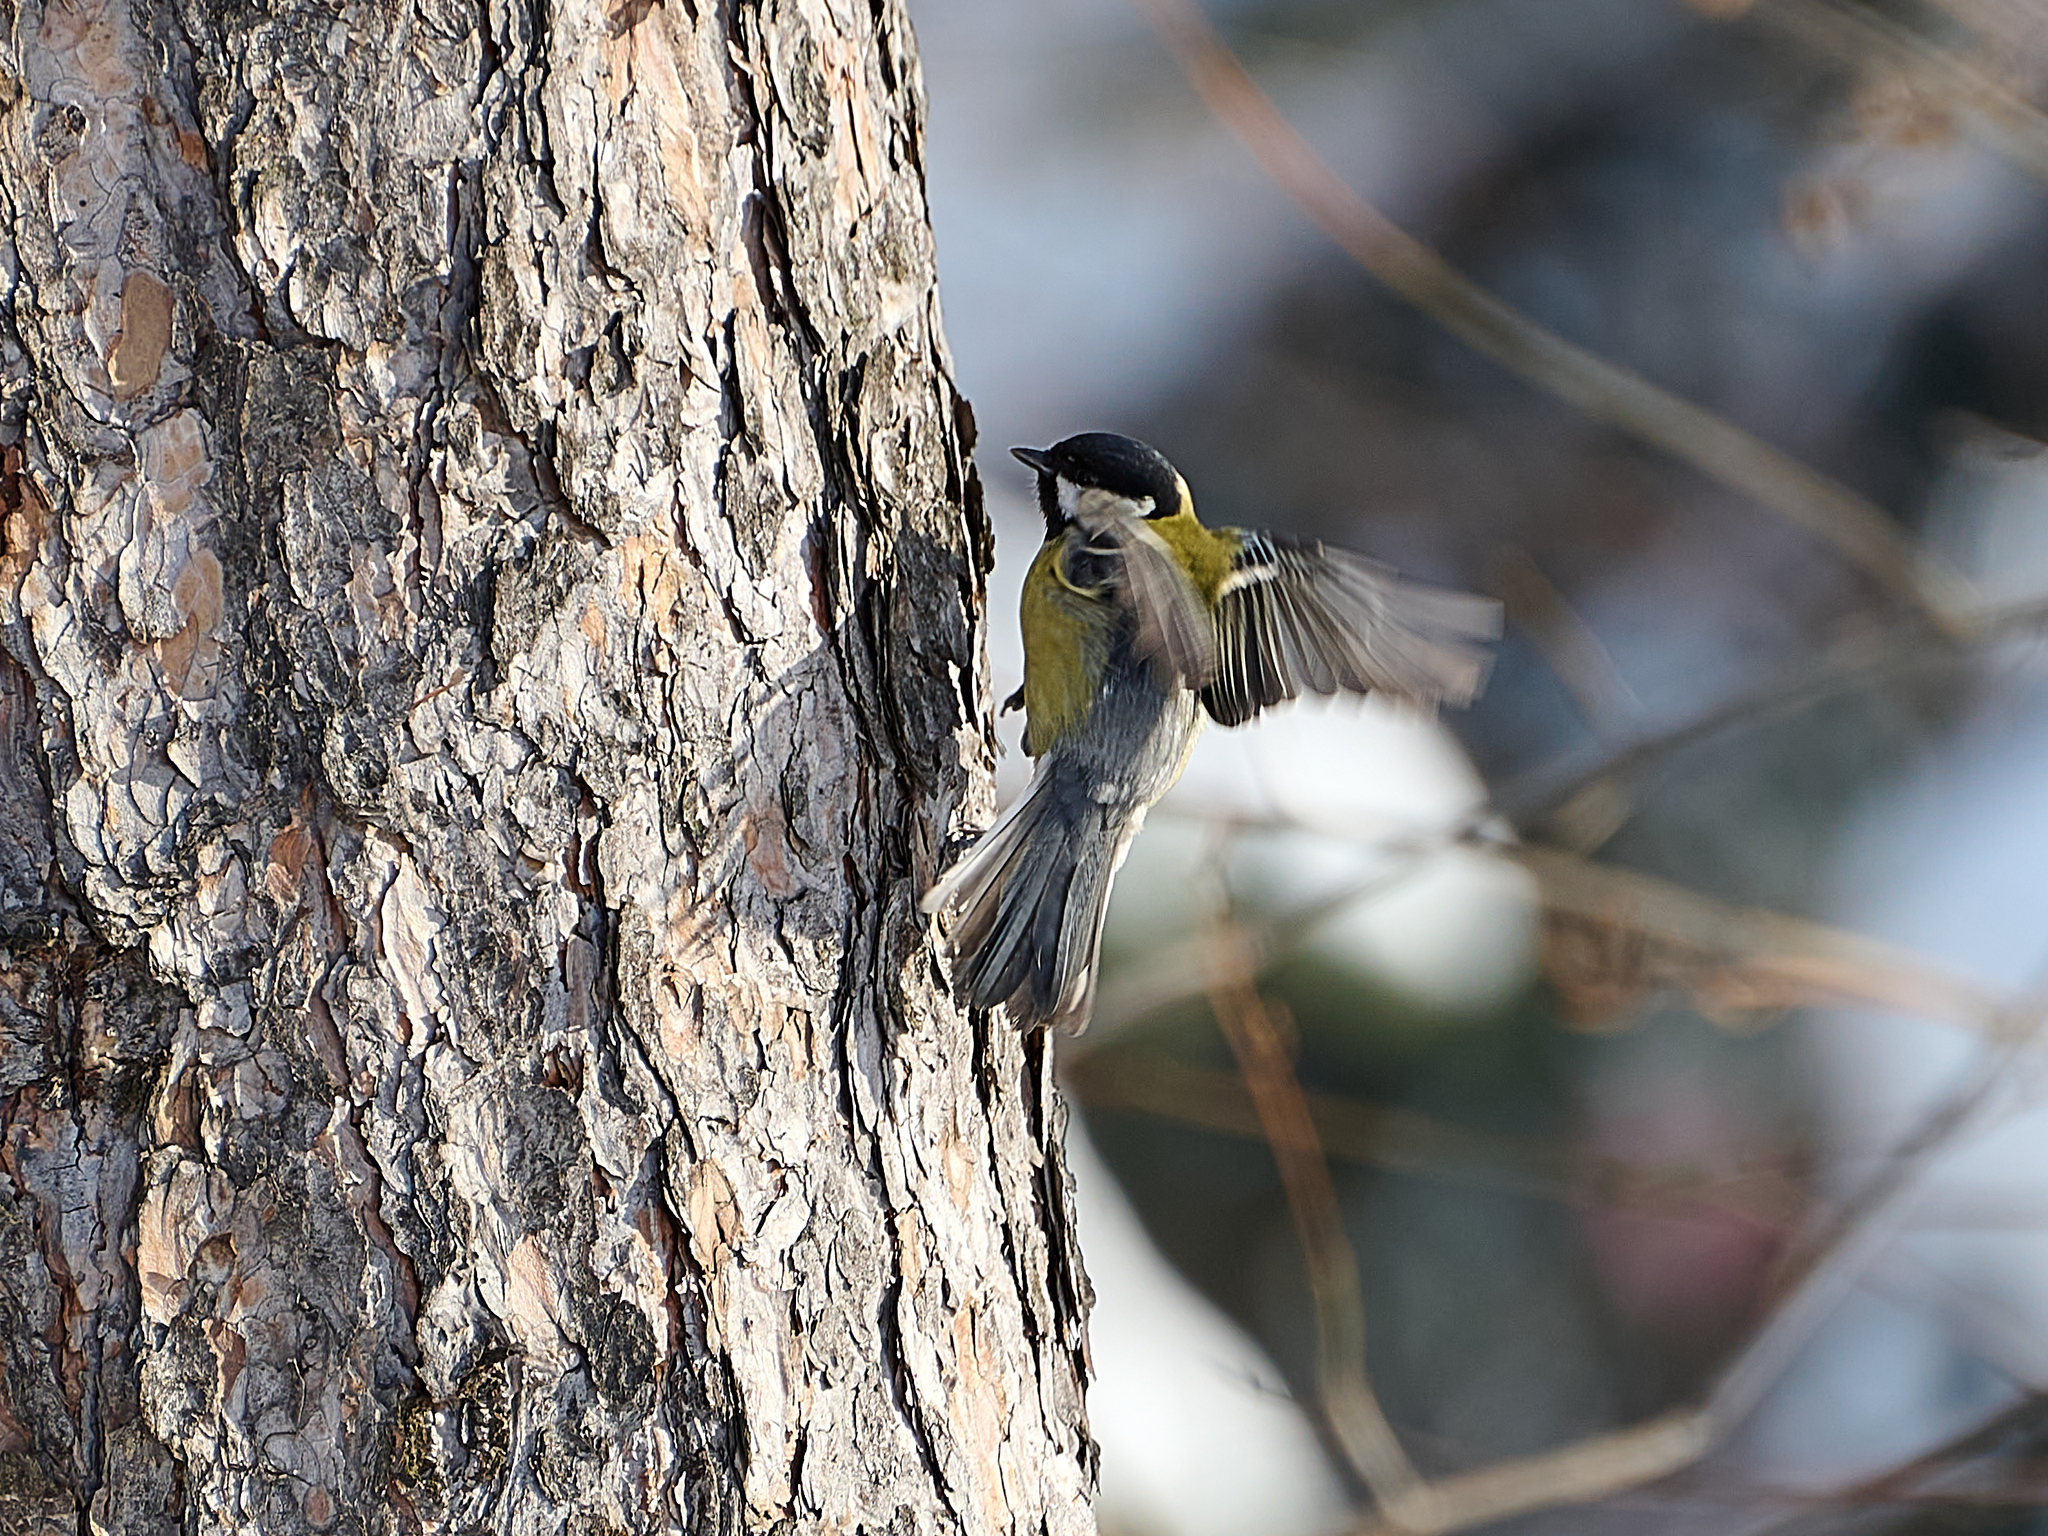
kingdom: Animalia
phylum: Chordata
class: Aves
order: Passeriformes
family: Paridae
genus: Parus
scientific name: Parus major
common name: Great tit
